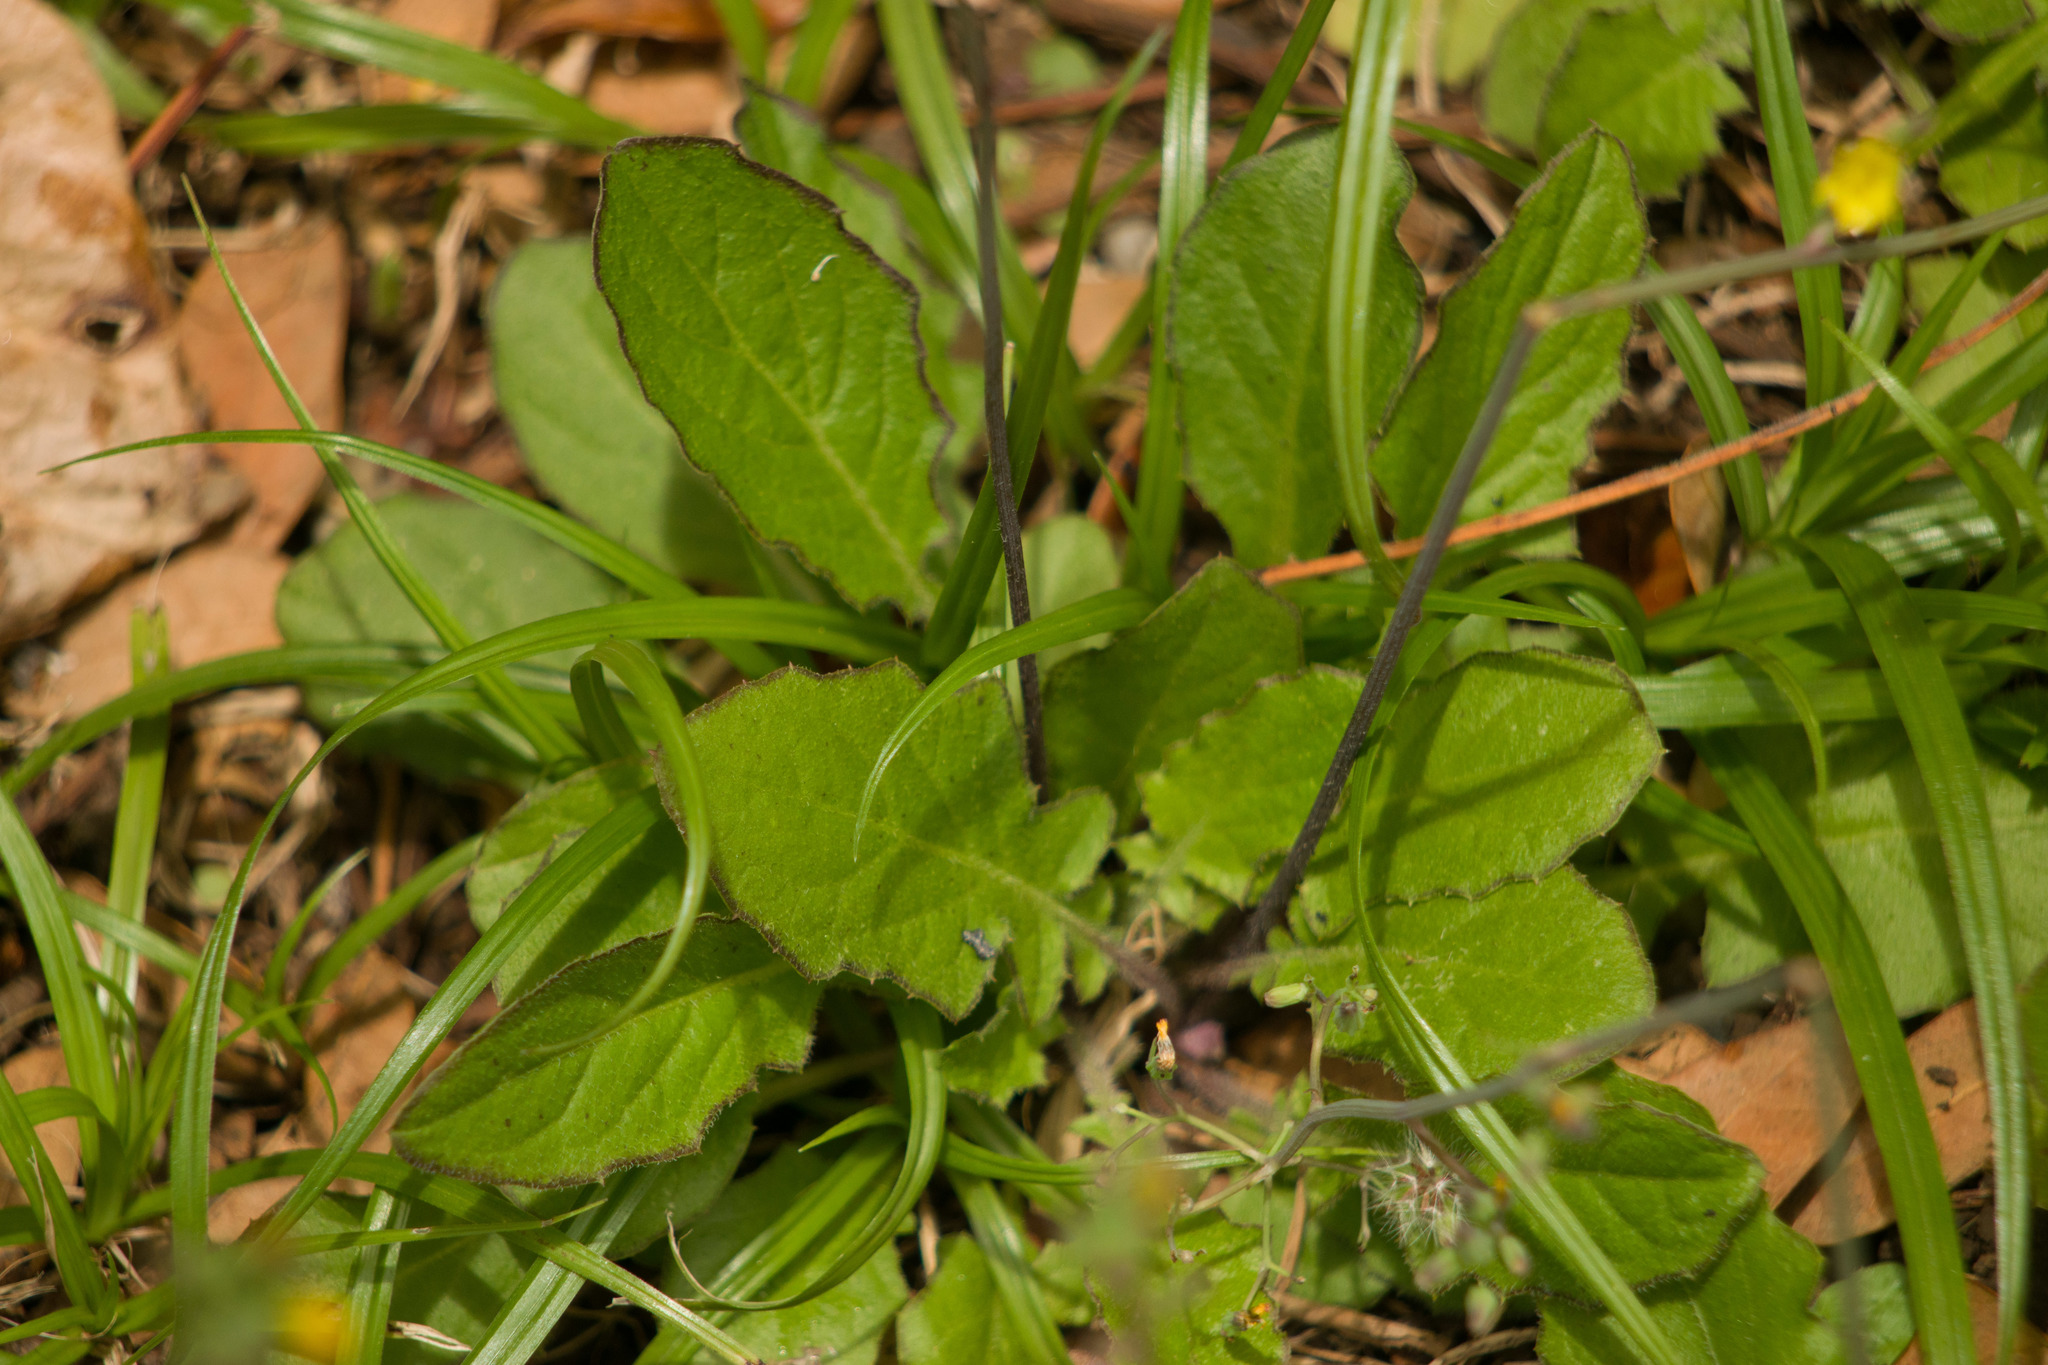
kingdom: Plantae
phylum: Tracheophyta
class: Magnoliopsida
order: Asterales
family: Asteraceae
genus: Youngia
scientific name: Youngia japonica
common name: Oriental false hawksbeard
